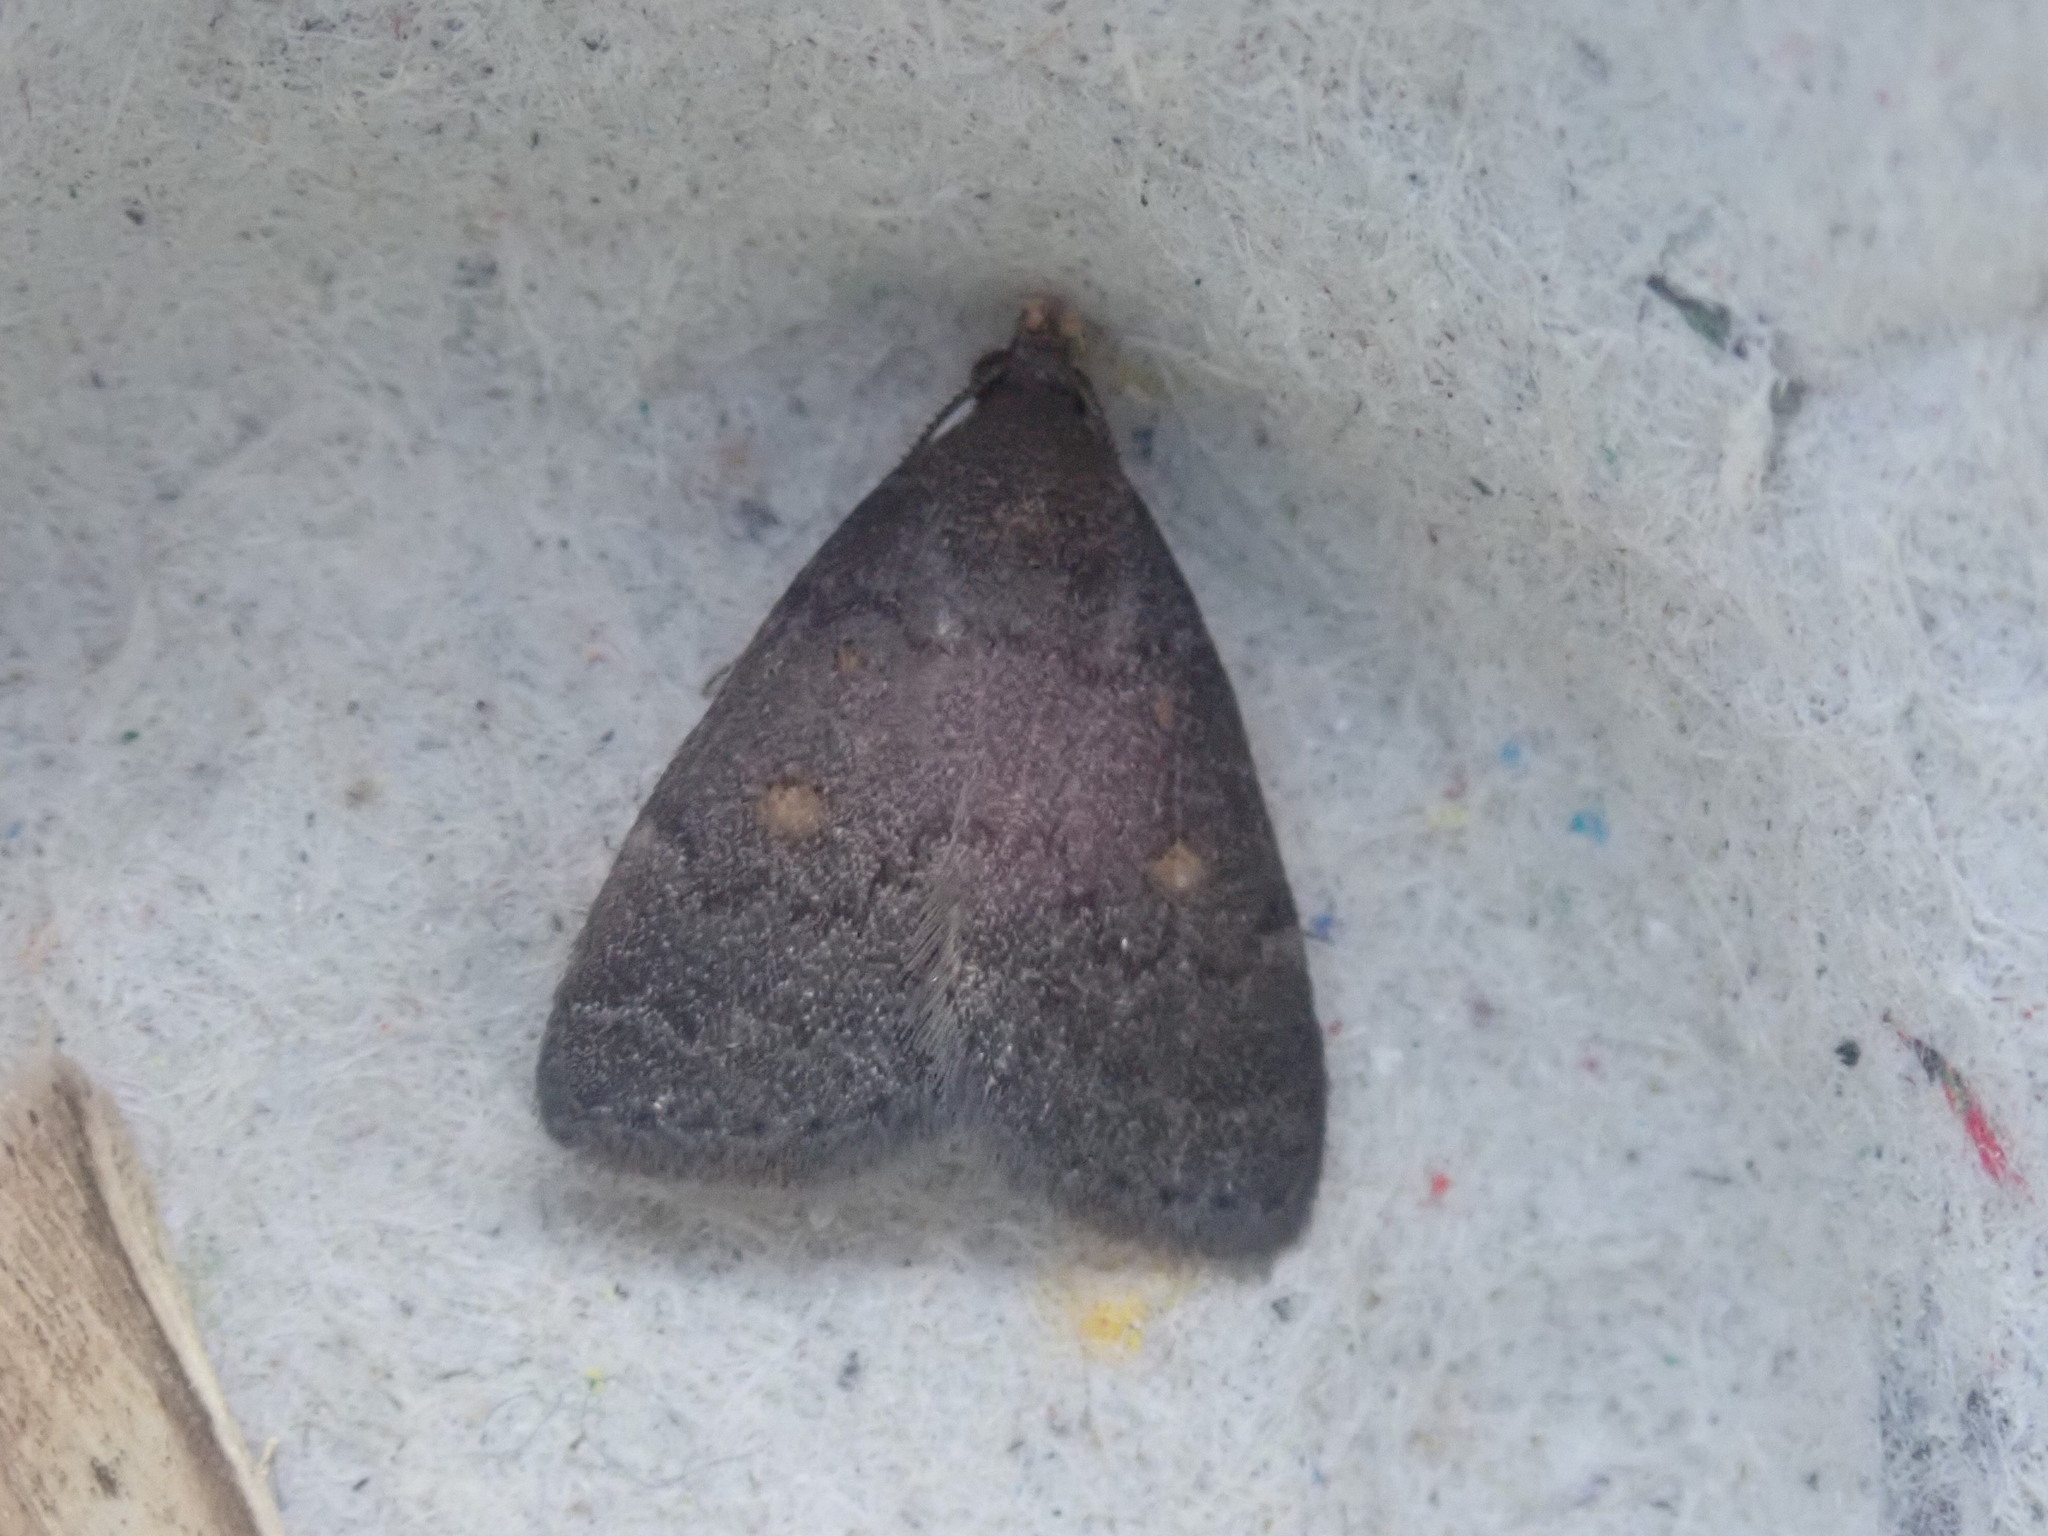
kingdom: Animalia
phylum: Arthropoda
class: Insecta
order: Lepidoptera
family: Erebidae
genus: Idia
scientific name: Idia diminuendis
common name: Orange-spotted idia moth
